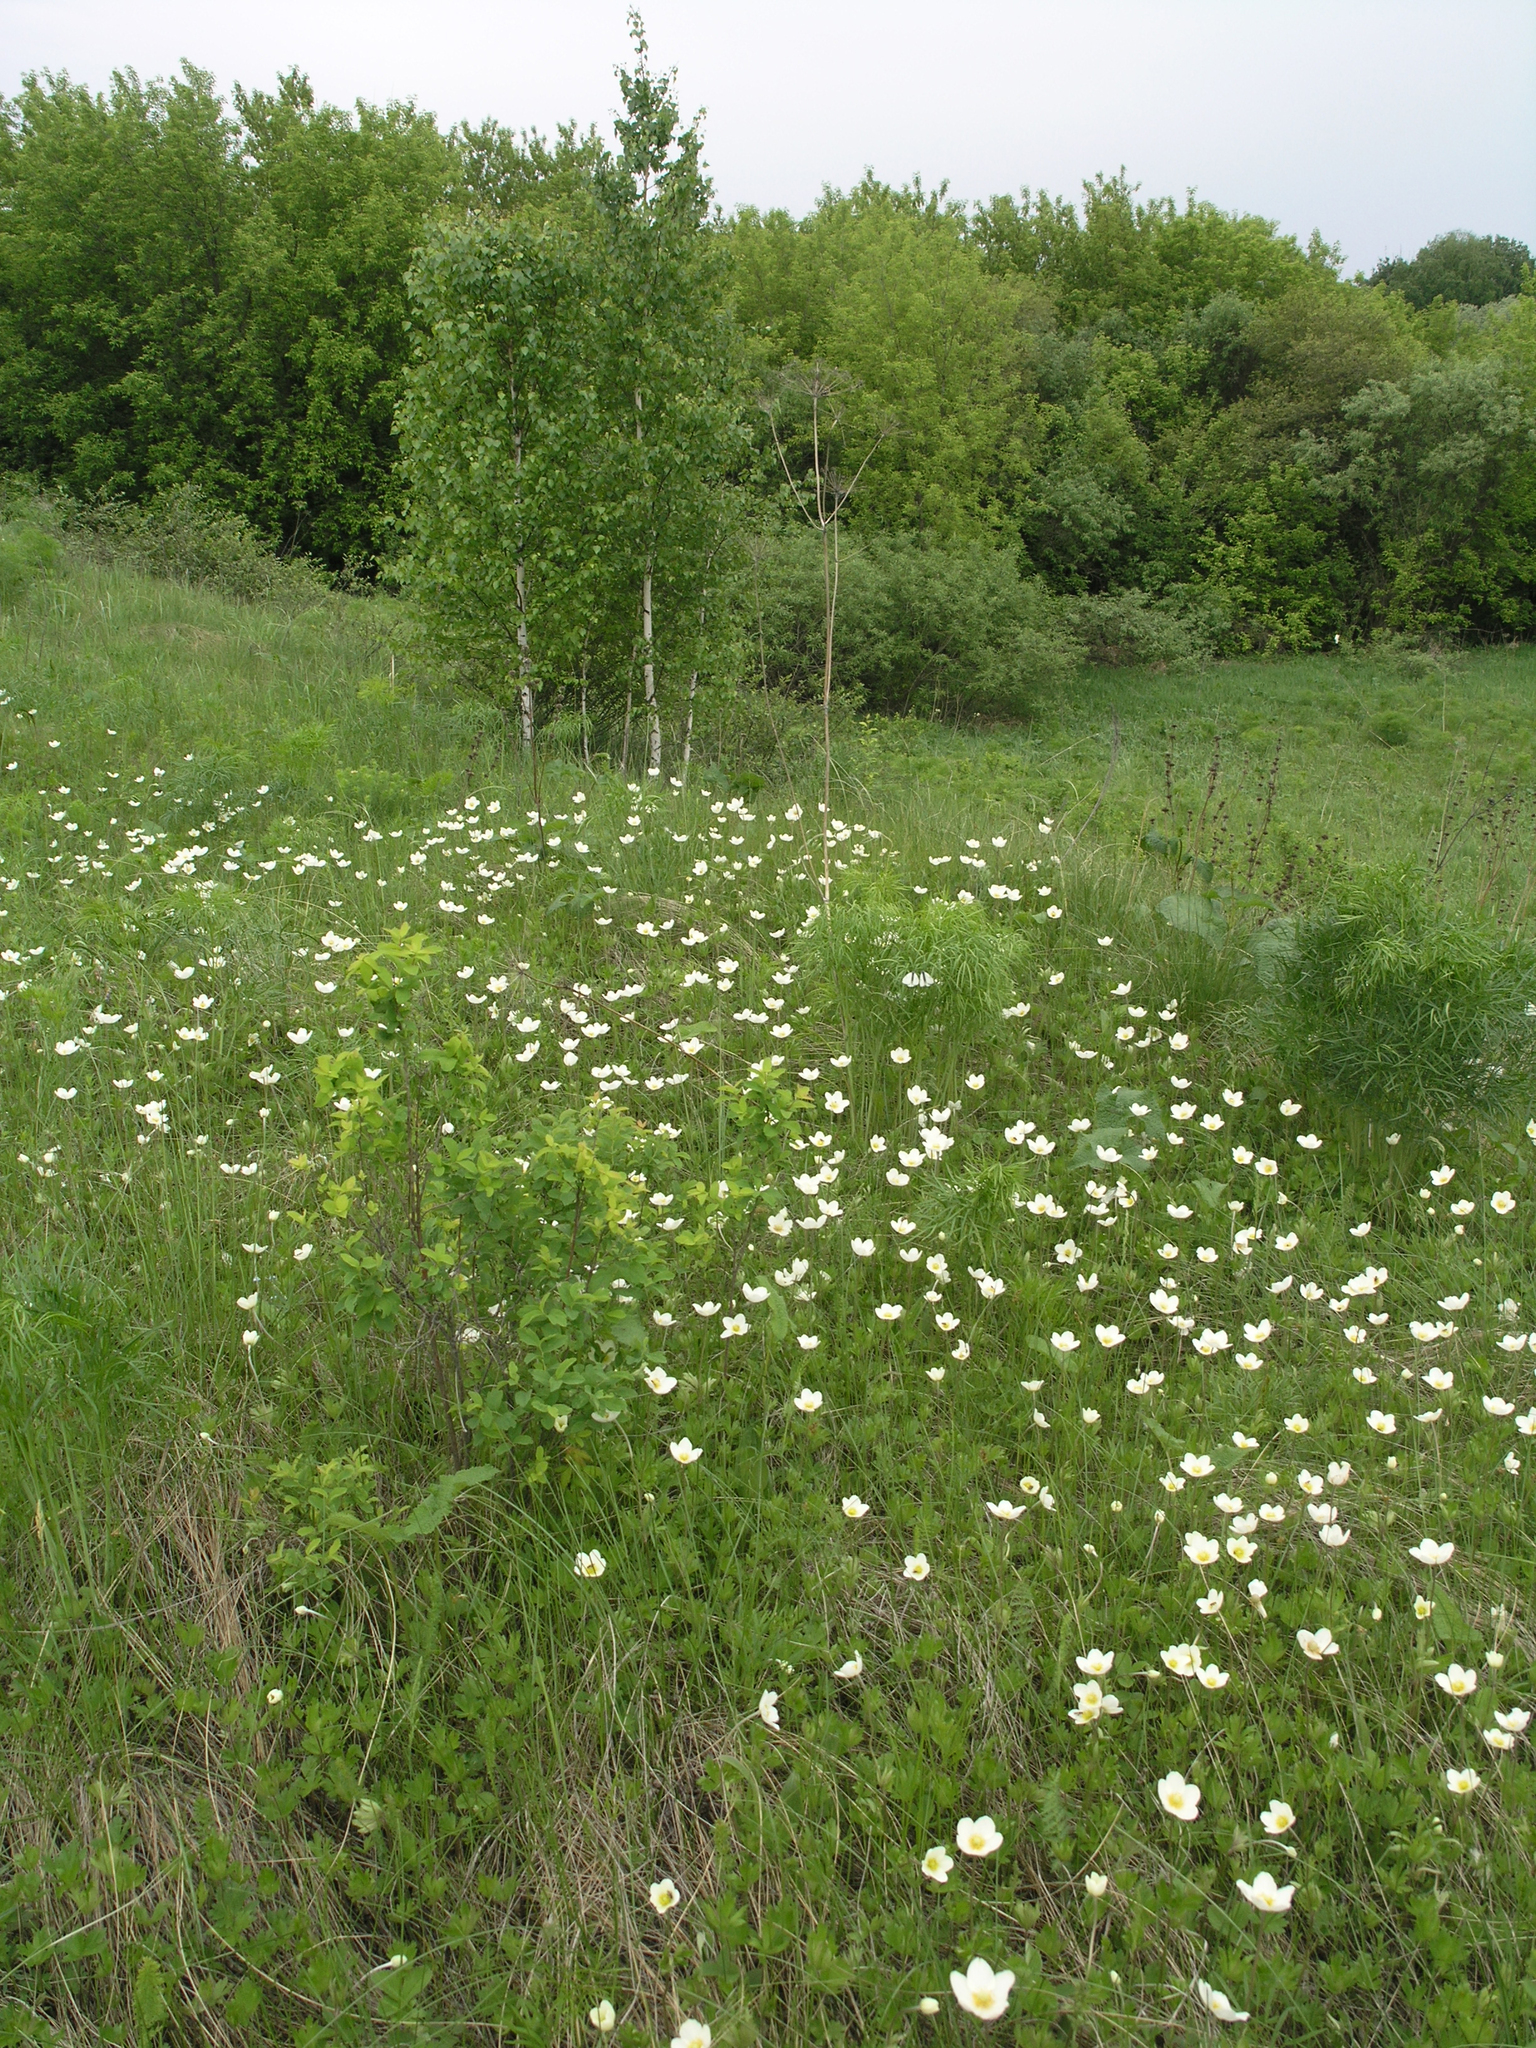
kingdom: Plantae
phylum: Tracheophyta
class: Magnoliopsida
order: Ranunculales
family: Ranunculaceae
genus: Anemone
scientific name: Anemone sylvestris
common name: Snowdrop anemone
